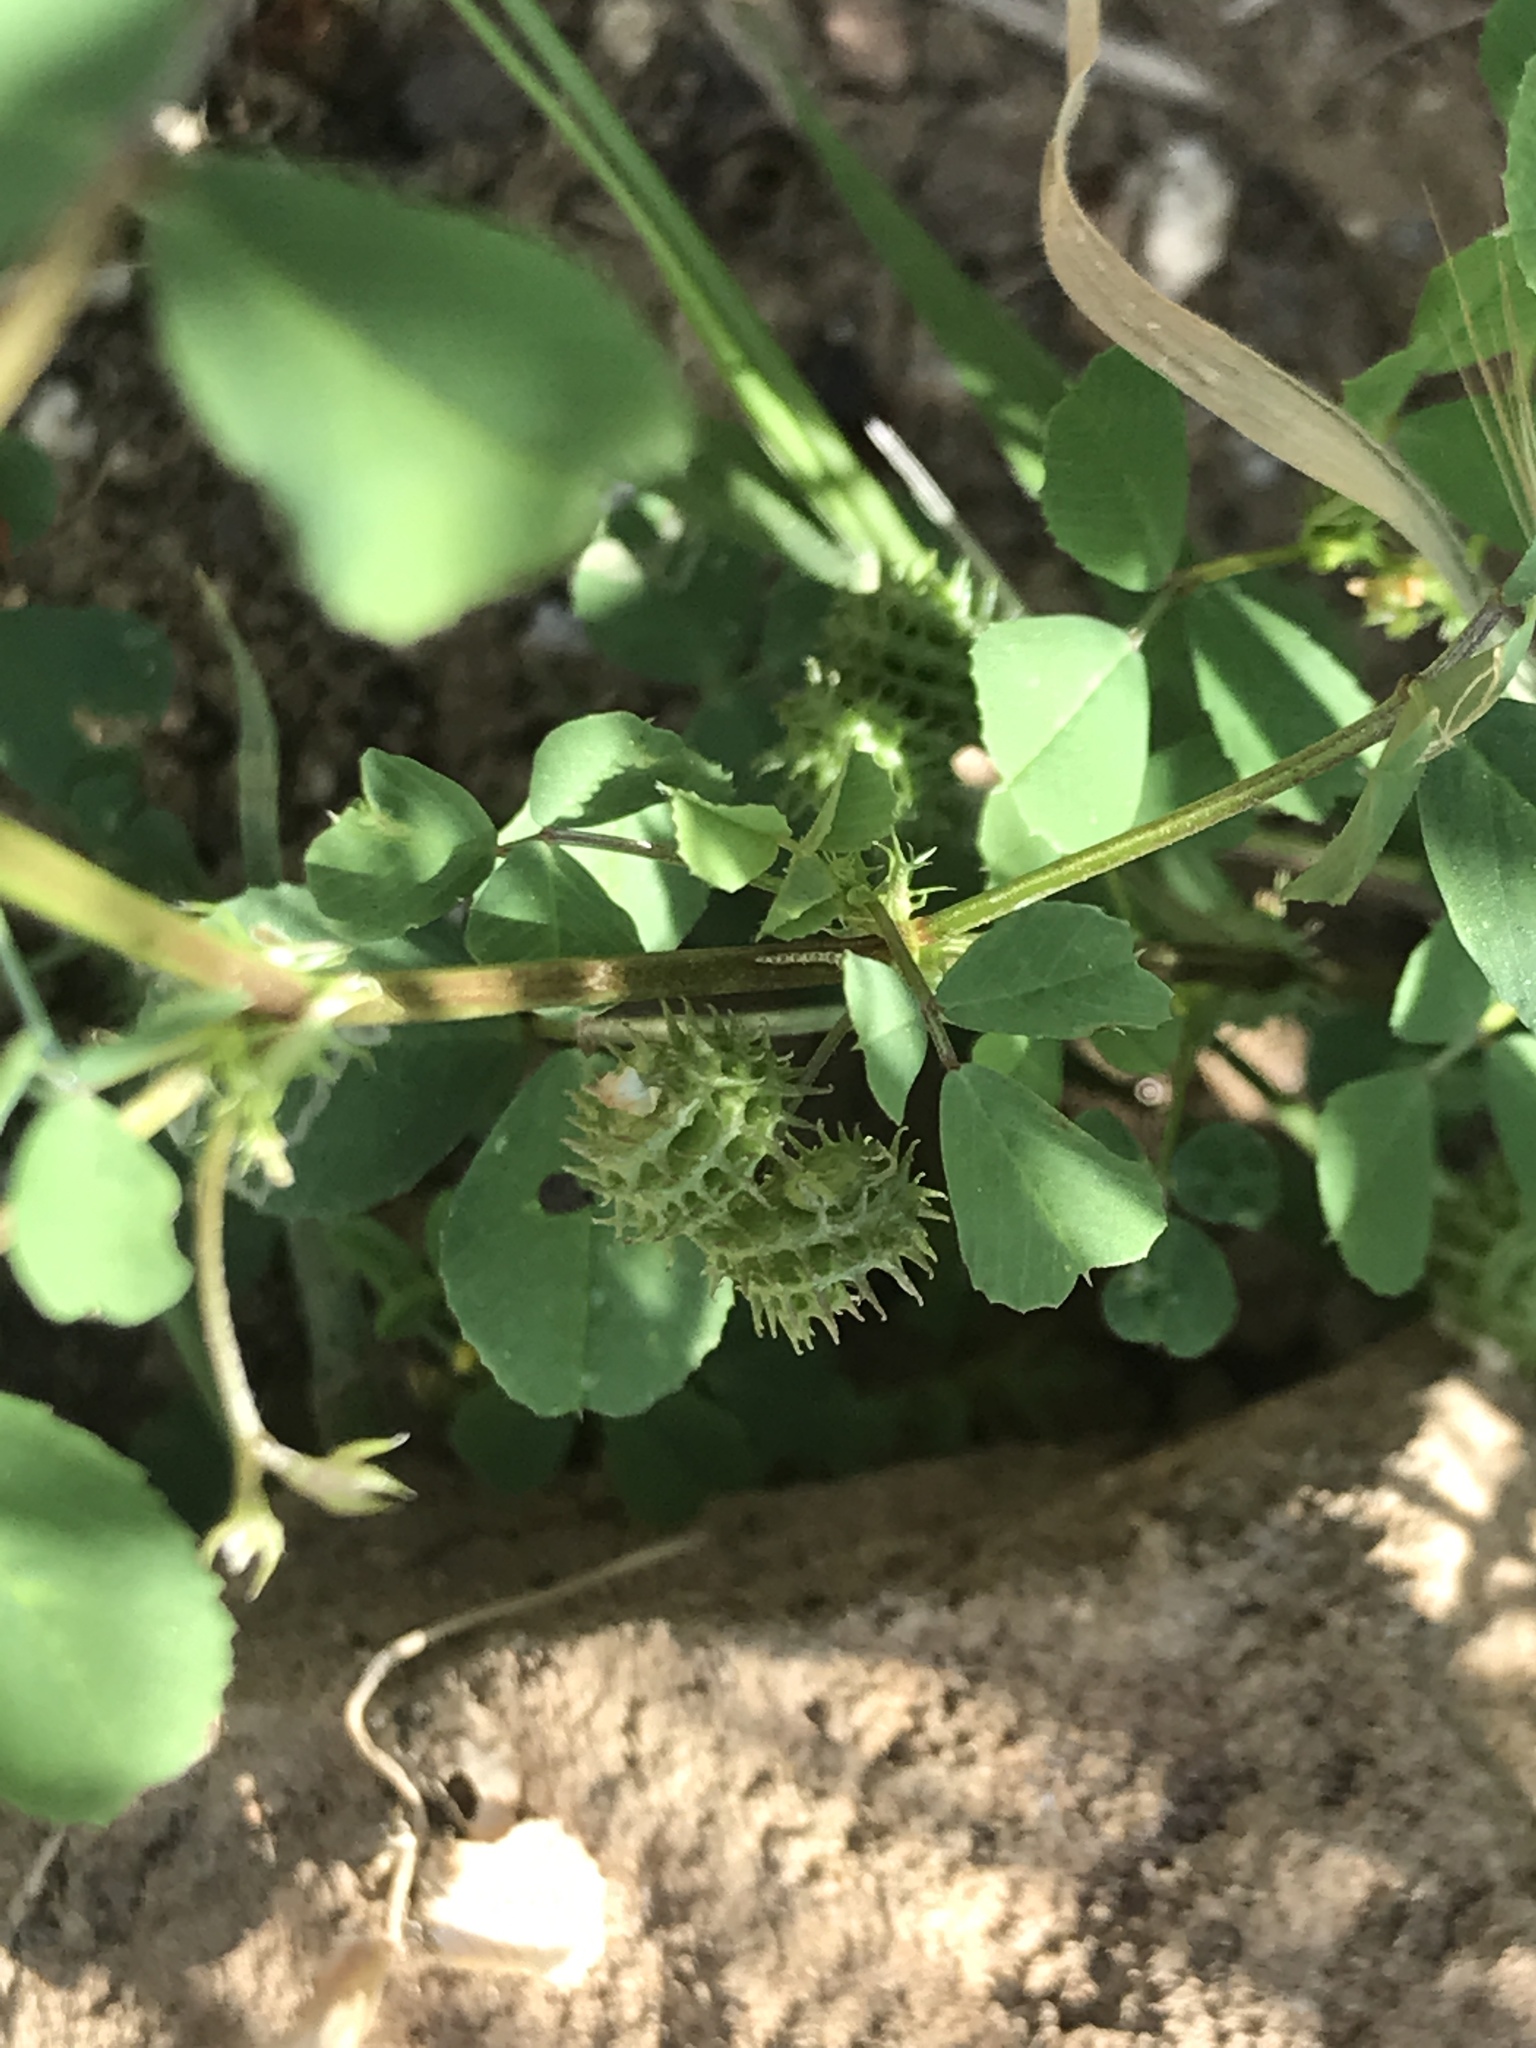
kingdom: Plantae
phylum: Tracheophyta
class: Magnoliopsida
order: Fabales
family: Fabaceae
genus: Medicago
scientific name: Medicago polymorpha
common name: Burclover
